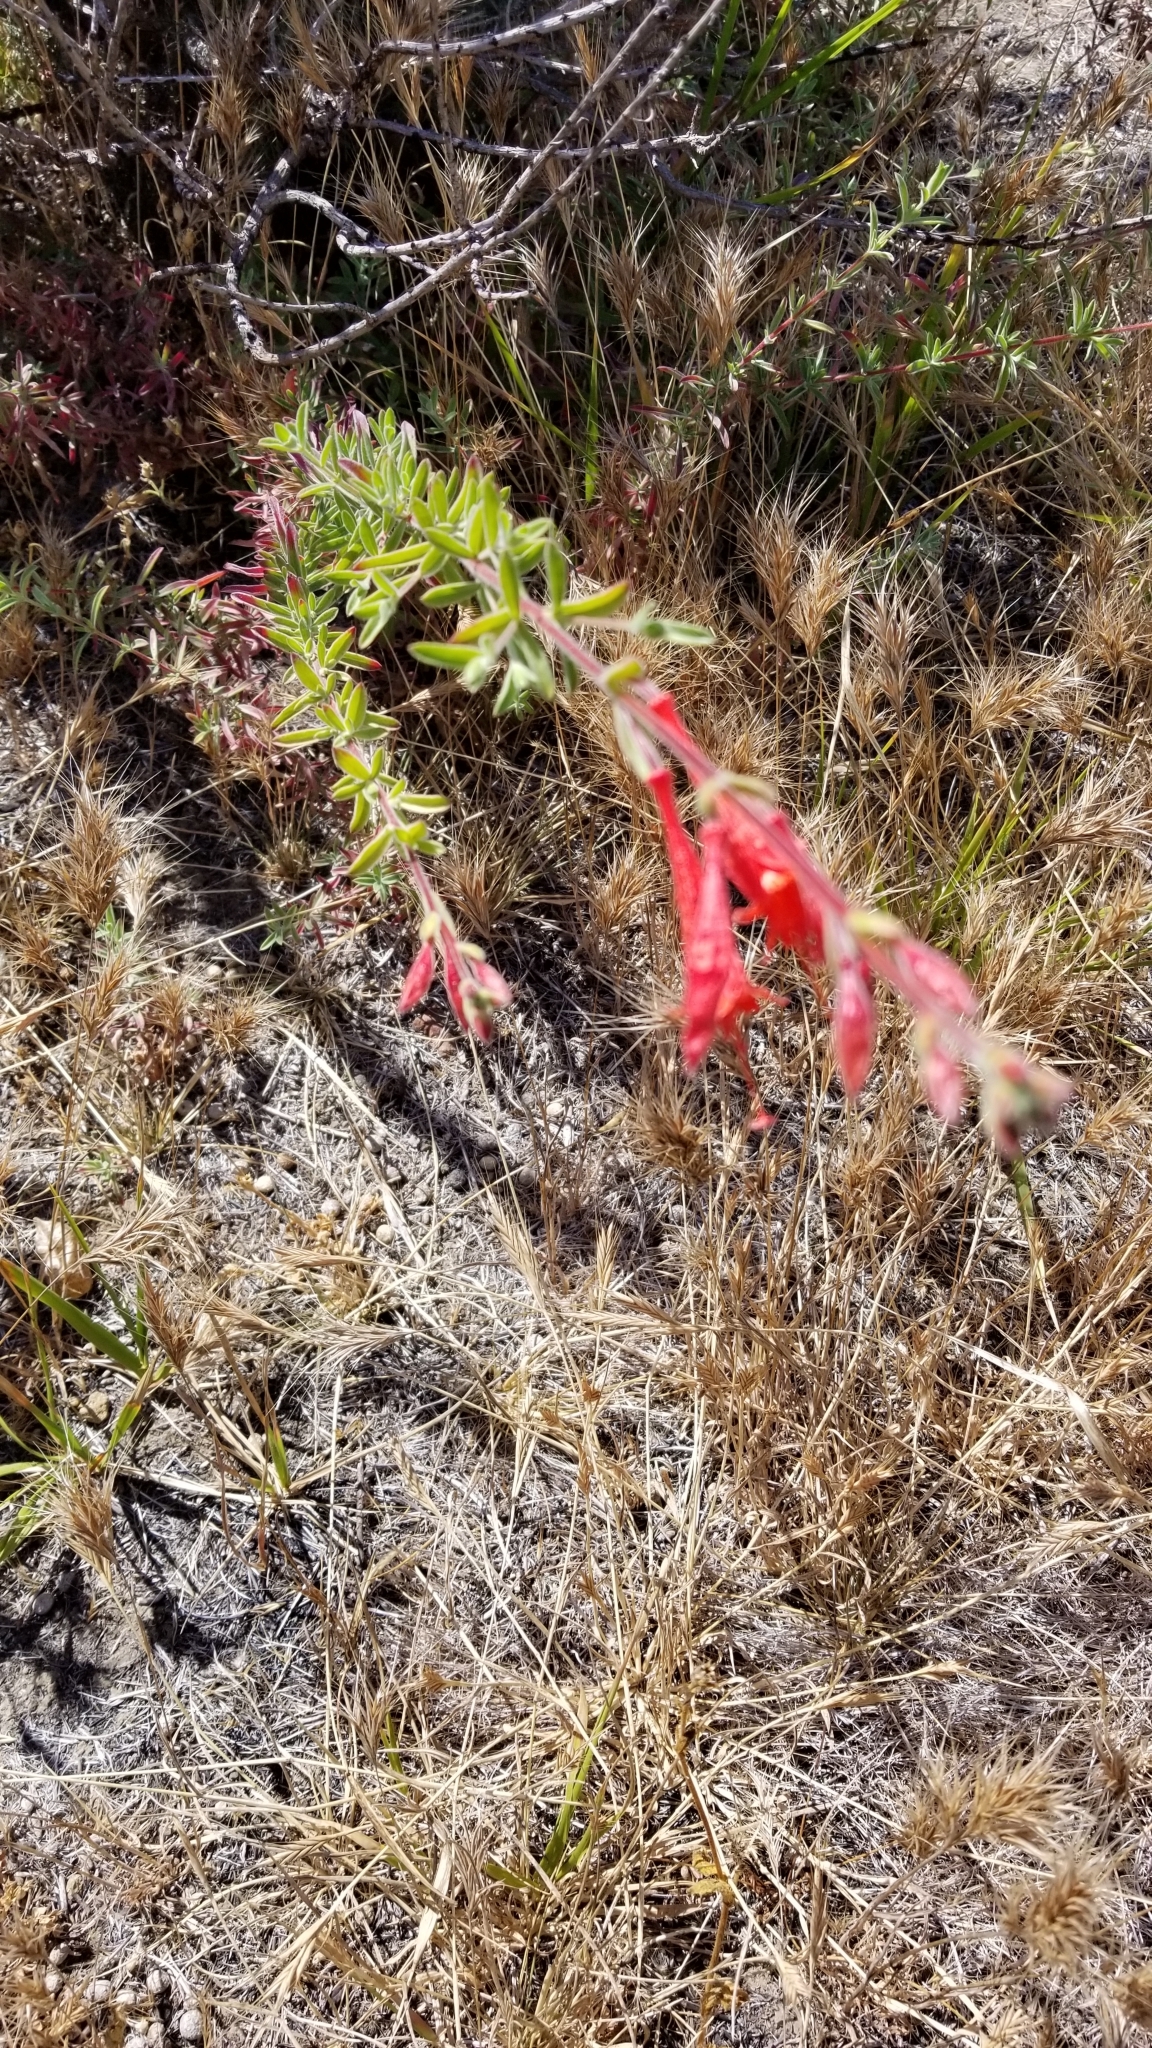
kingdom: Plantae
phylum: Tracheophyta
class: Magnoliopsida
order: Myrtales
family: Onagraceae
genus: Epilobium
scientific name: Epilobium canum
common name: California-fuchsia
